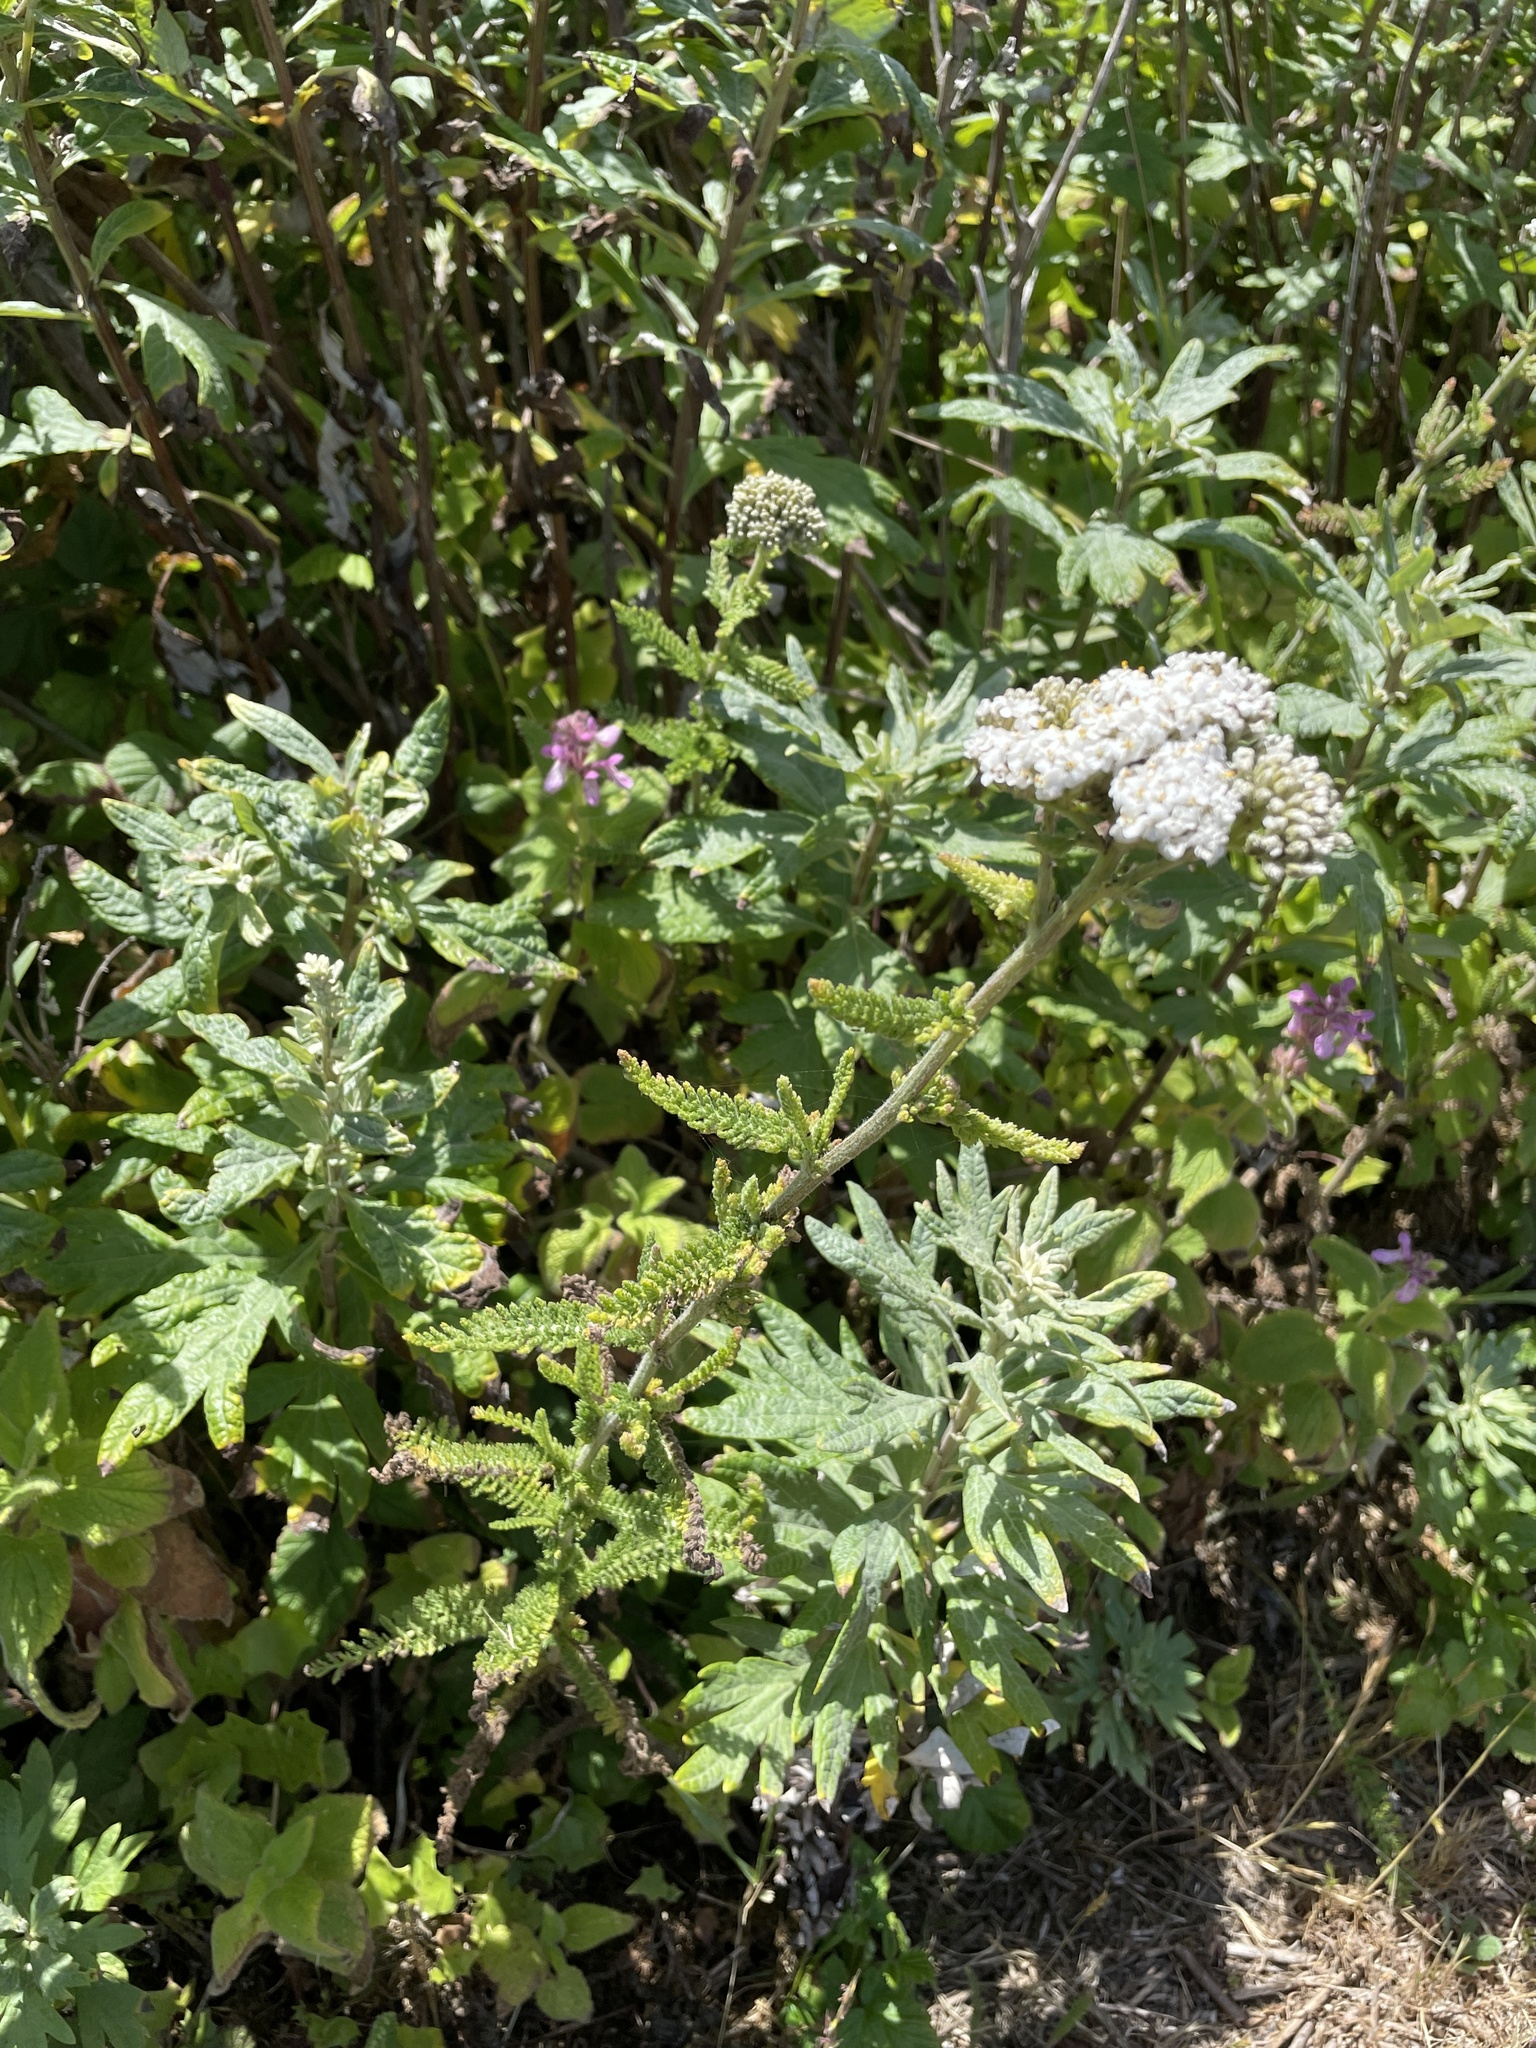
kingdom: Plantae
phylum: Tracheophyta
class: Magnoliopsida
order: Asterales
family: Asteraceae
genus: Achillea
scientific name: Achillea millefolium
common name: Yarrow
